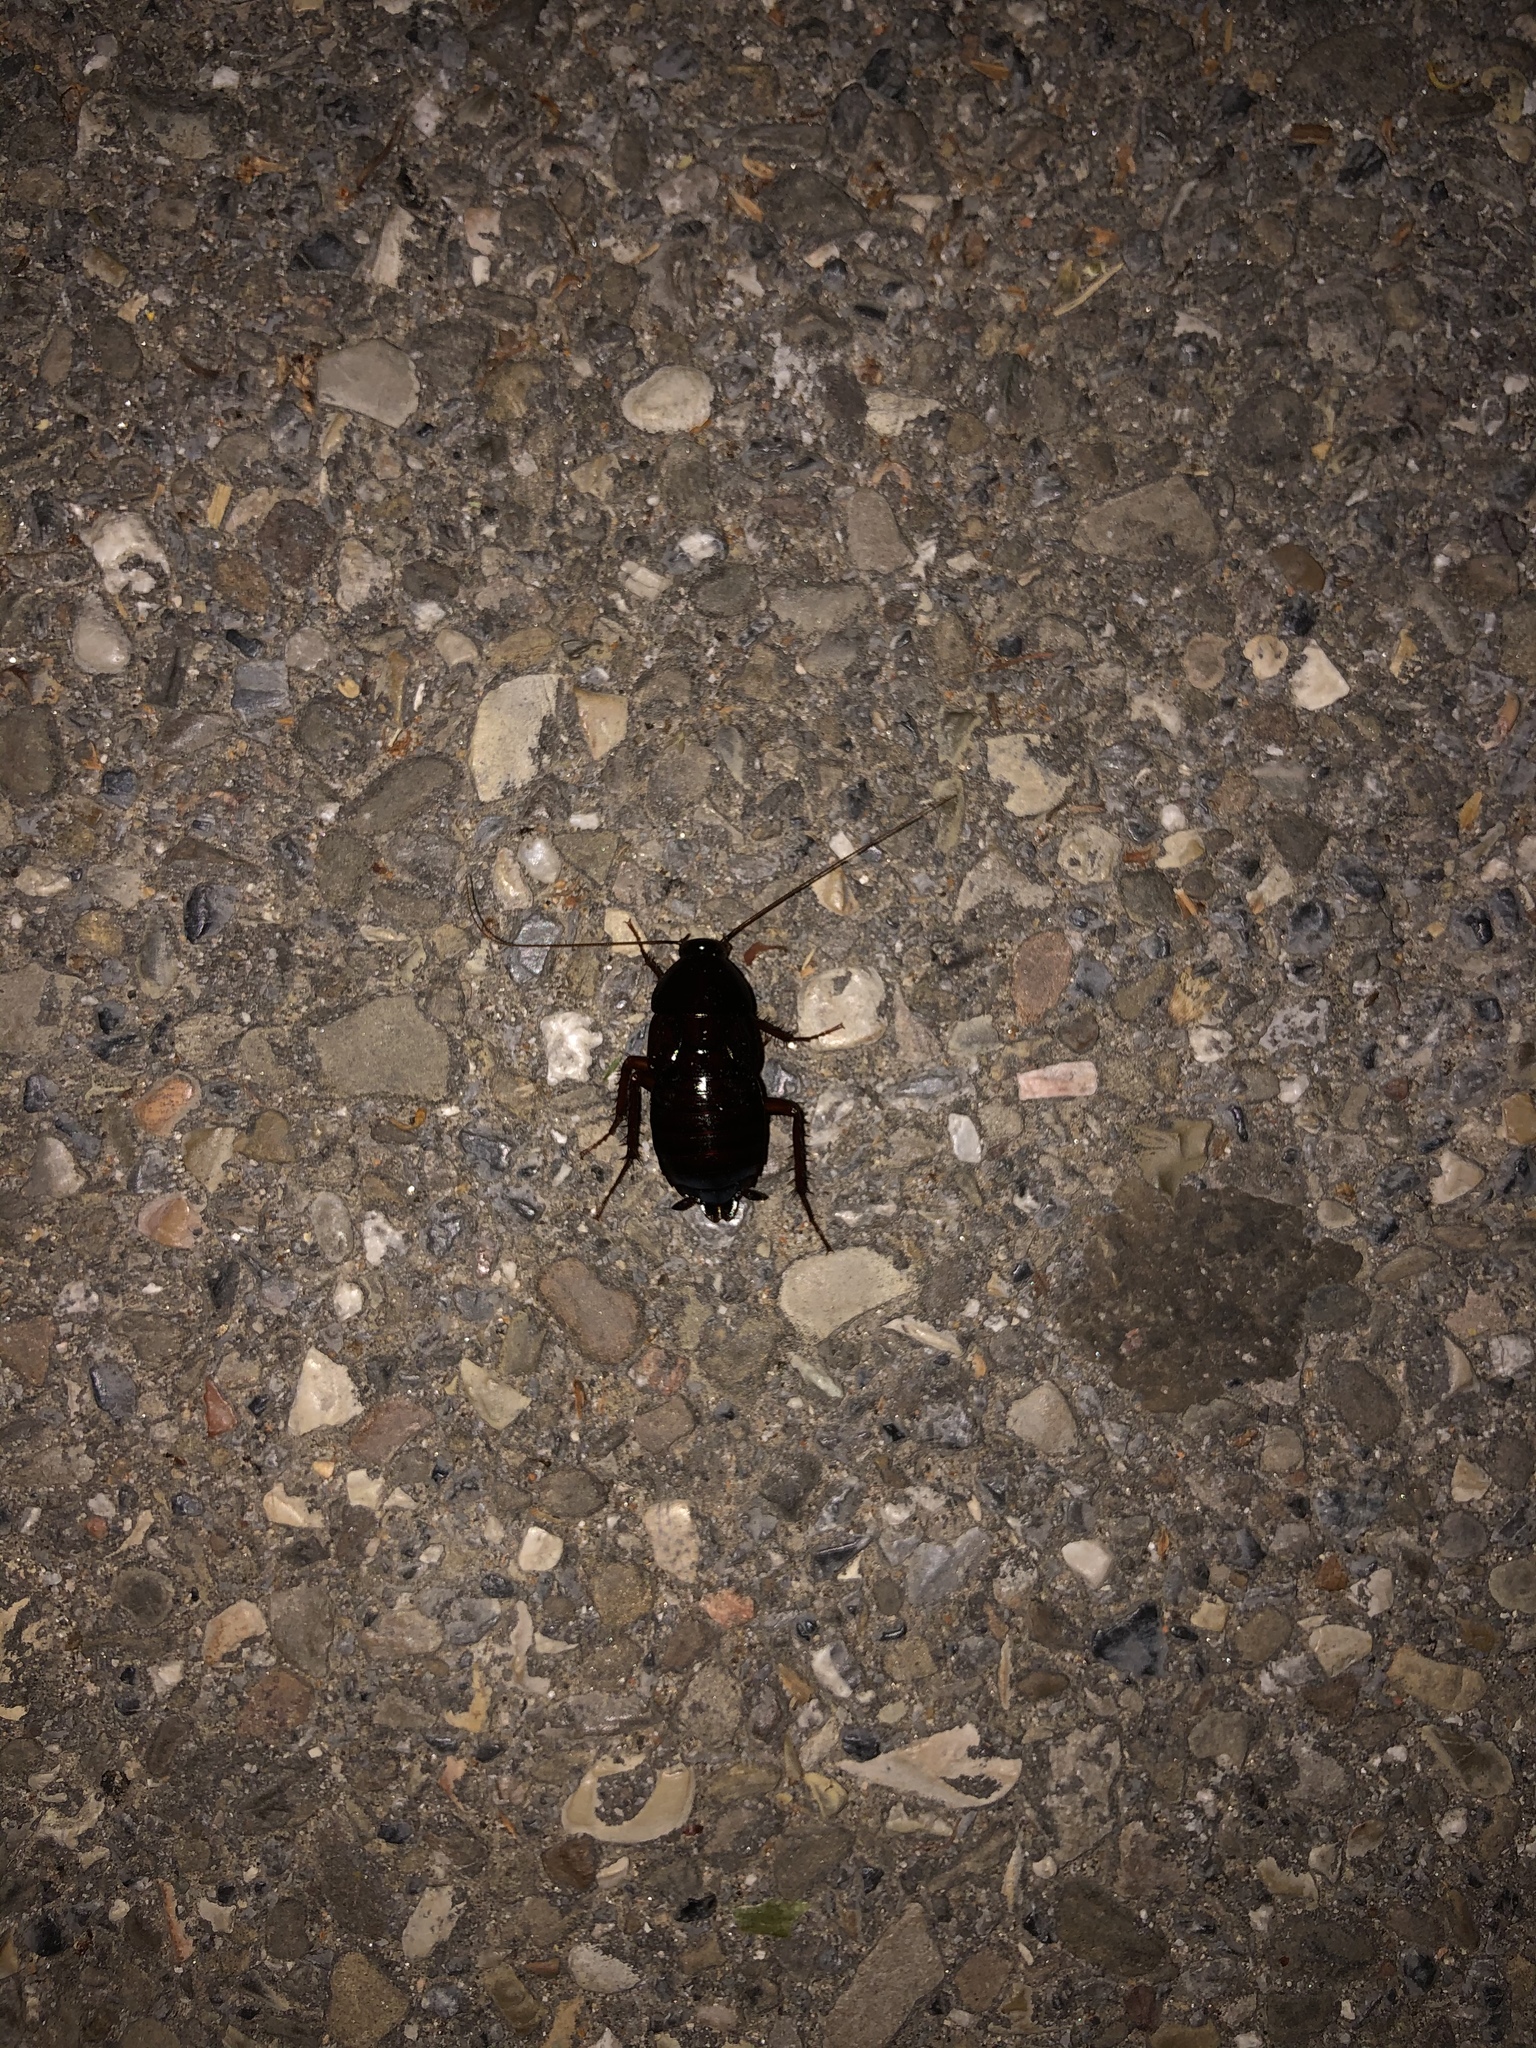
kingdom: Animalia
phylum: Arthropoda
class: Insecta
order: Blattodea
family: Blattidae
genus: Blatta
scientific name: Blatta orientalis
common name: Oriental cockroach
